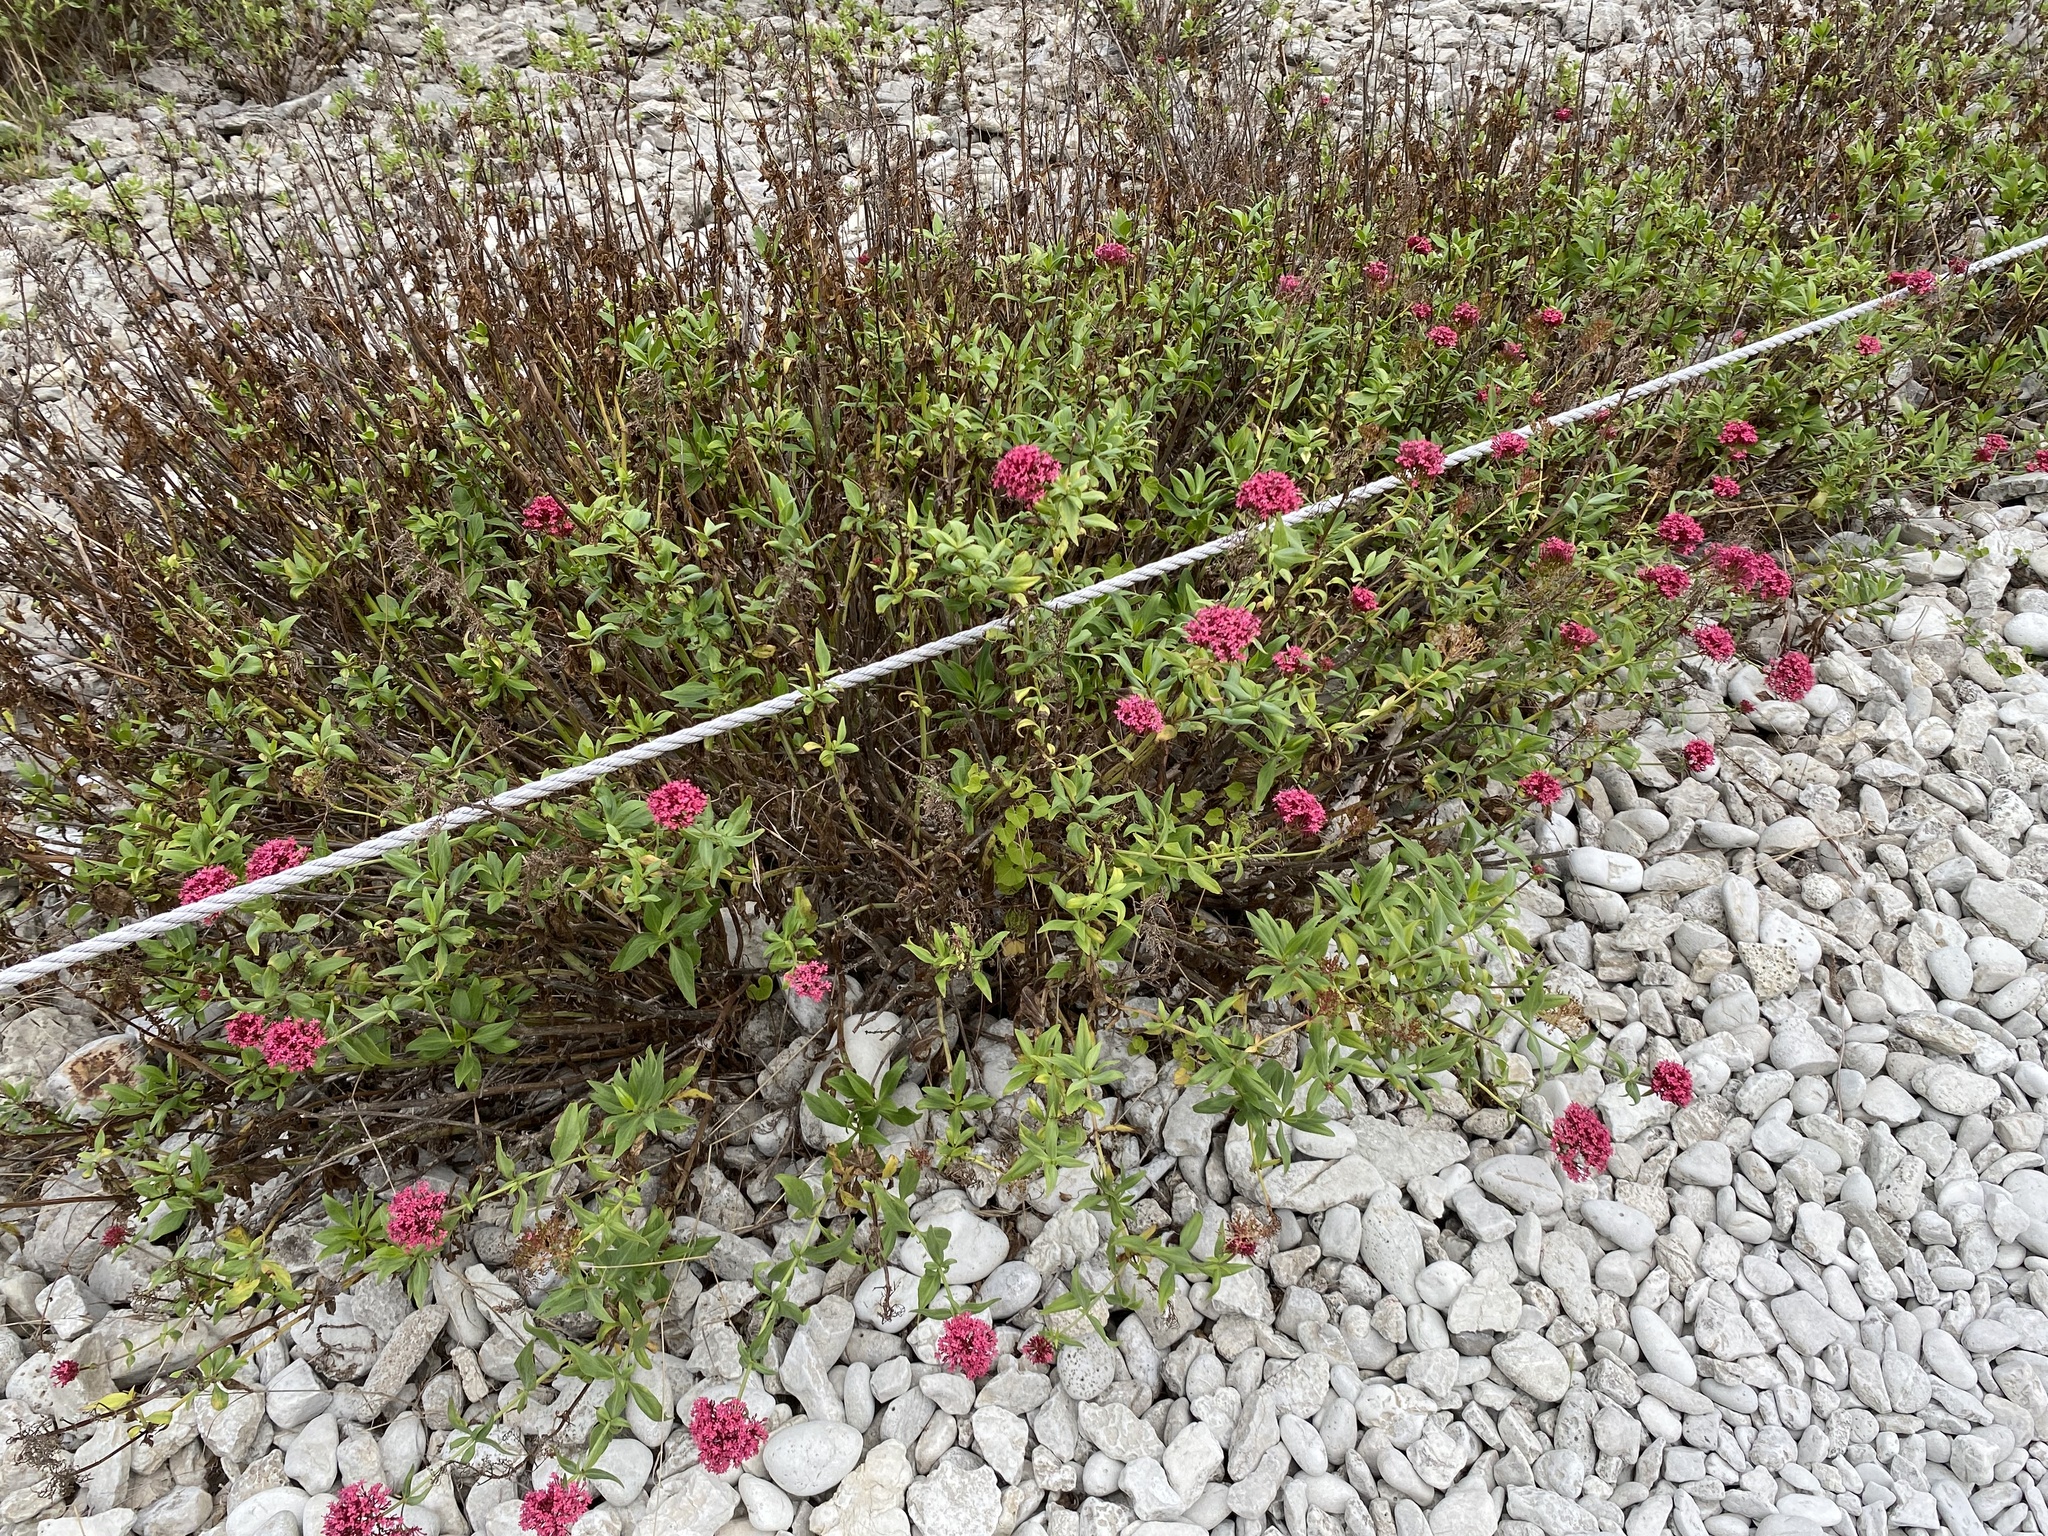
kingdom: Plantae
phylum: Tracheophyta
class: Magnoliopsida
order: Dipsacales
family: Caprifoliaceae
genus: Centranthus
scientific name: Centranthus ruber
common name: Red valerian
